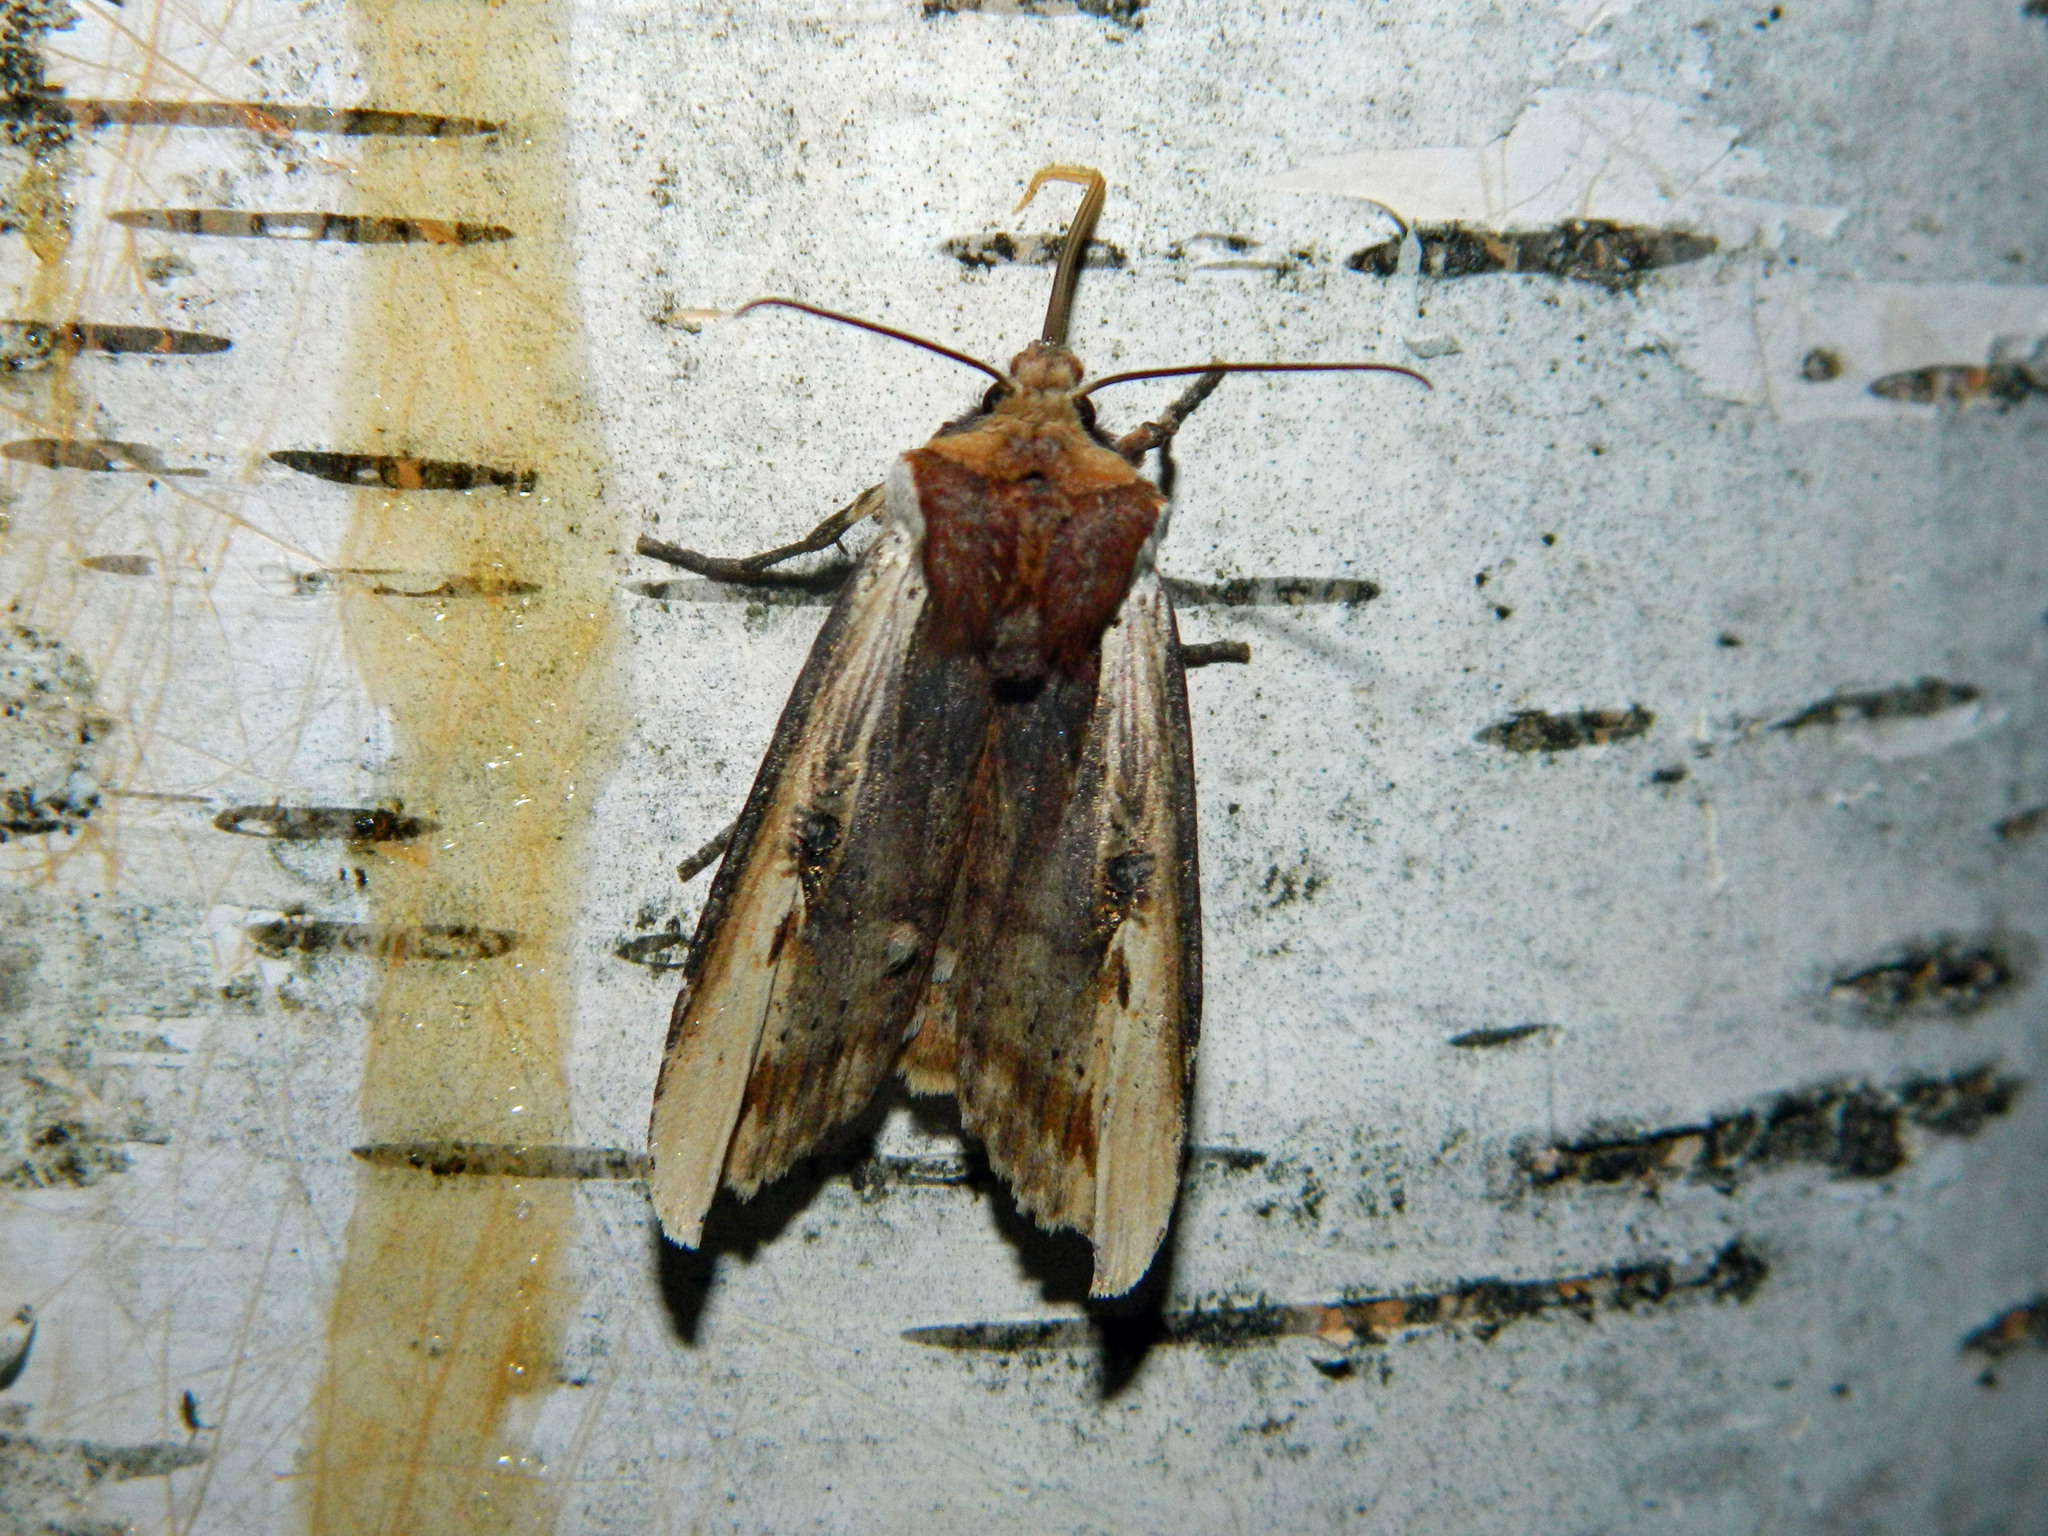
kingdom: Animalia
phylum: Arthropoda
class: Insecta
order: Lepidoptera
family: Noctuidae
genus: Xylena
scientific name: Xylena curvimacula
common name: Dot-and-dash swordgrass moth
